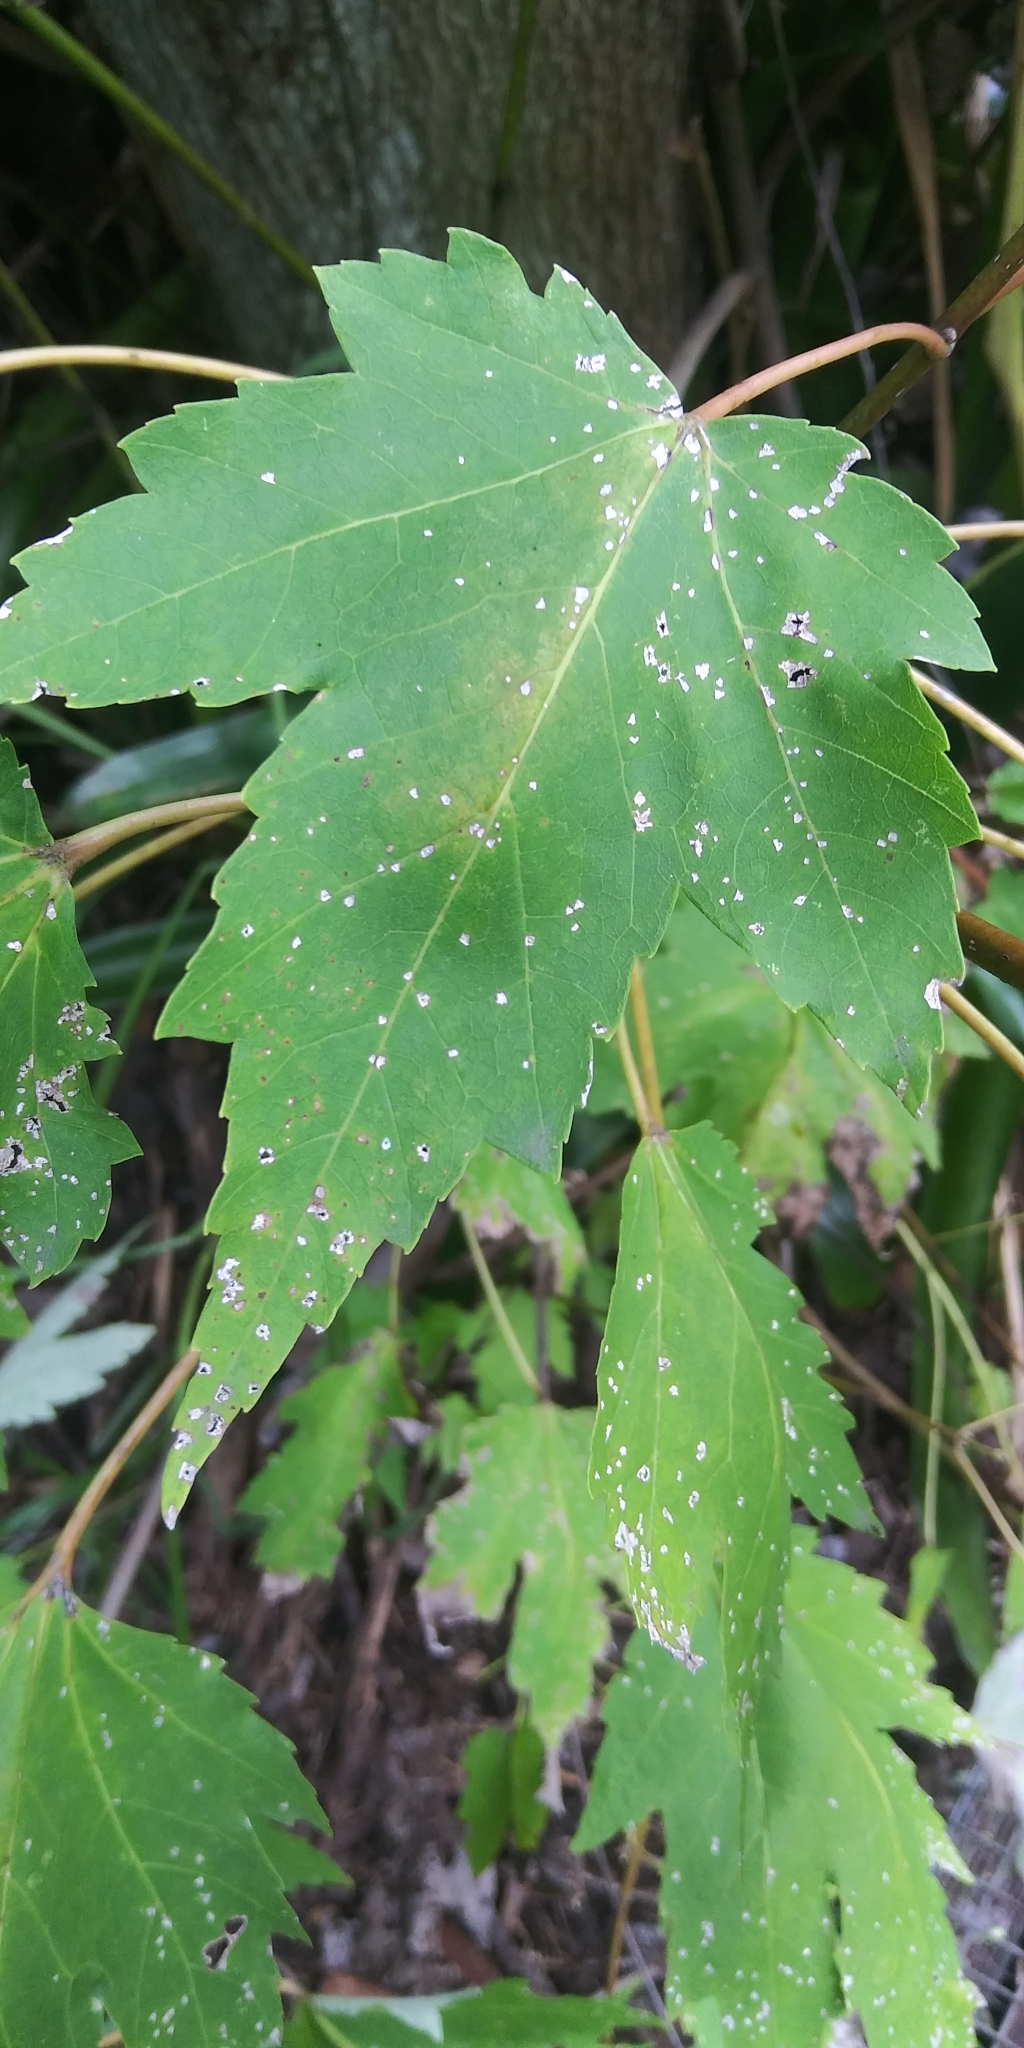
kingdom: Plantae
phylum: Tracheophyta
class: Magnoliopsida
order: Sapindales
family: Sapindaceae
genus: Acer
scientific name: Acer rubrum
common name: Red maple
